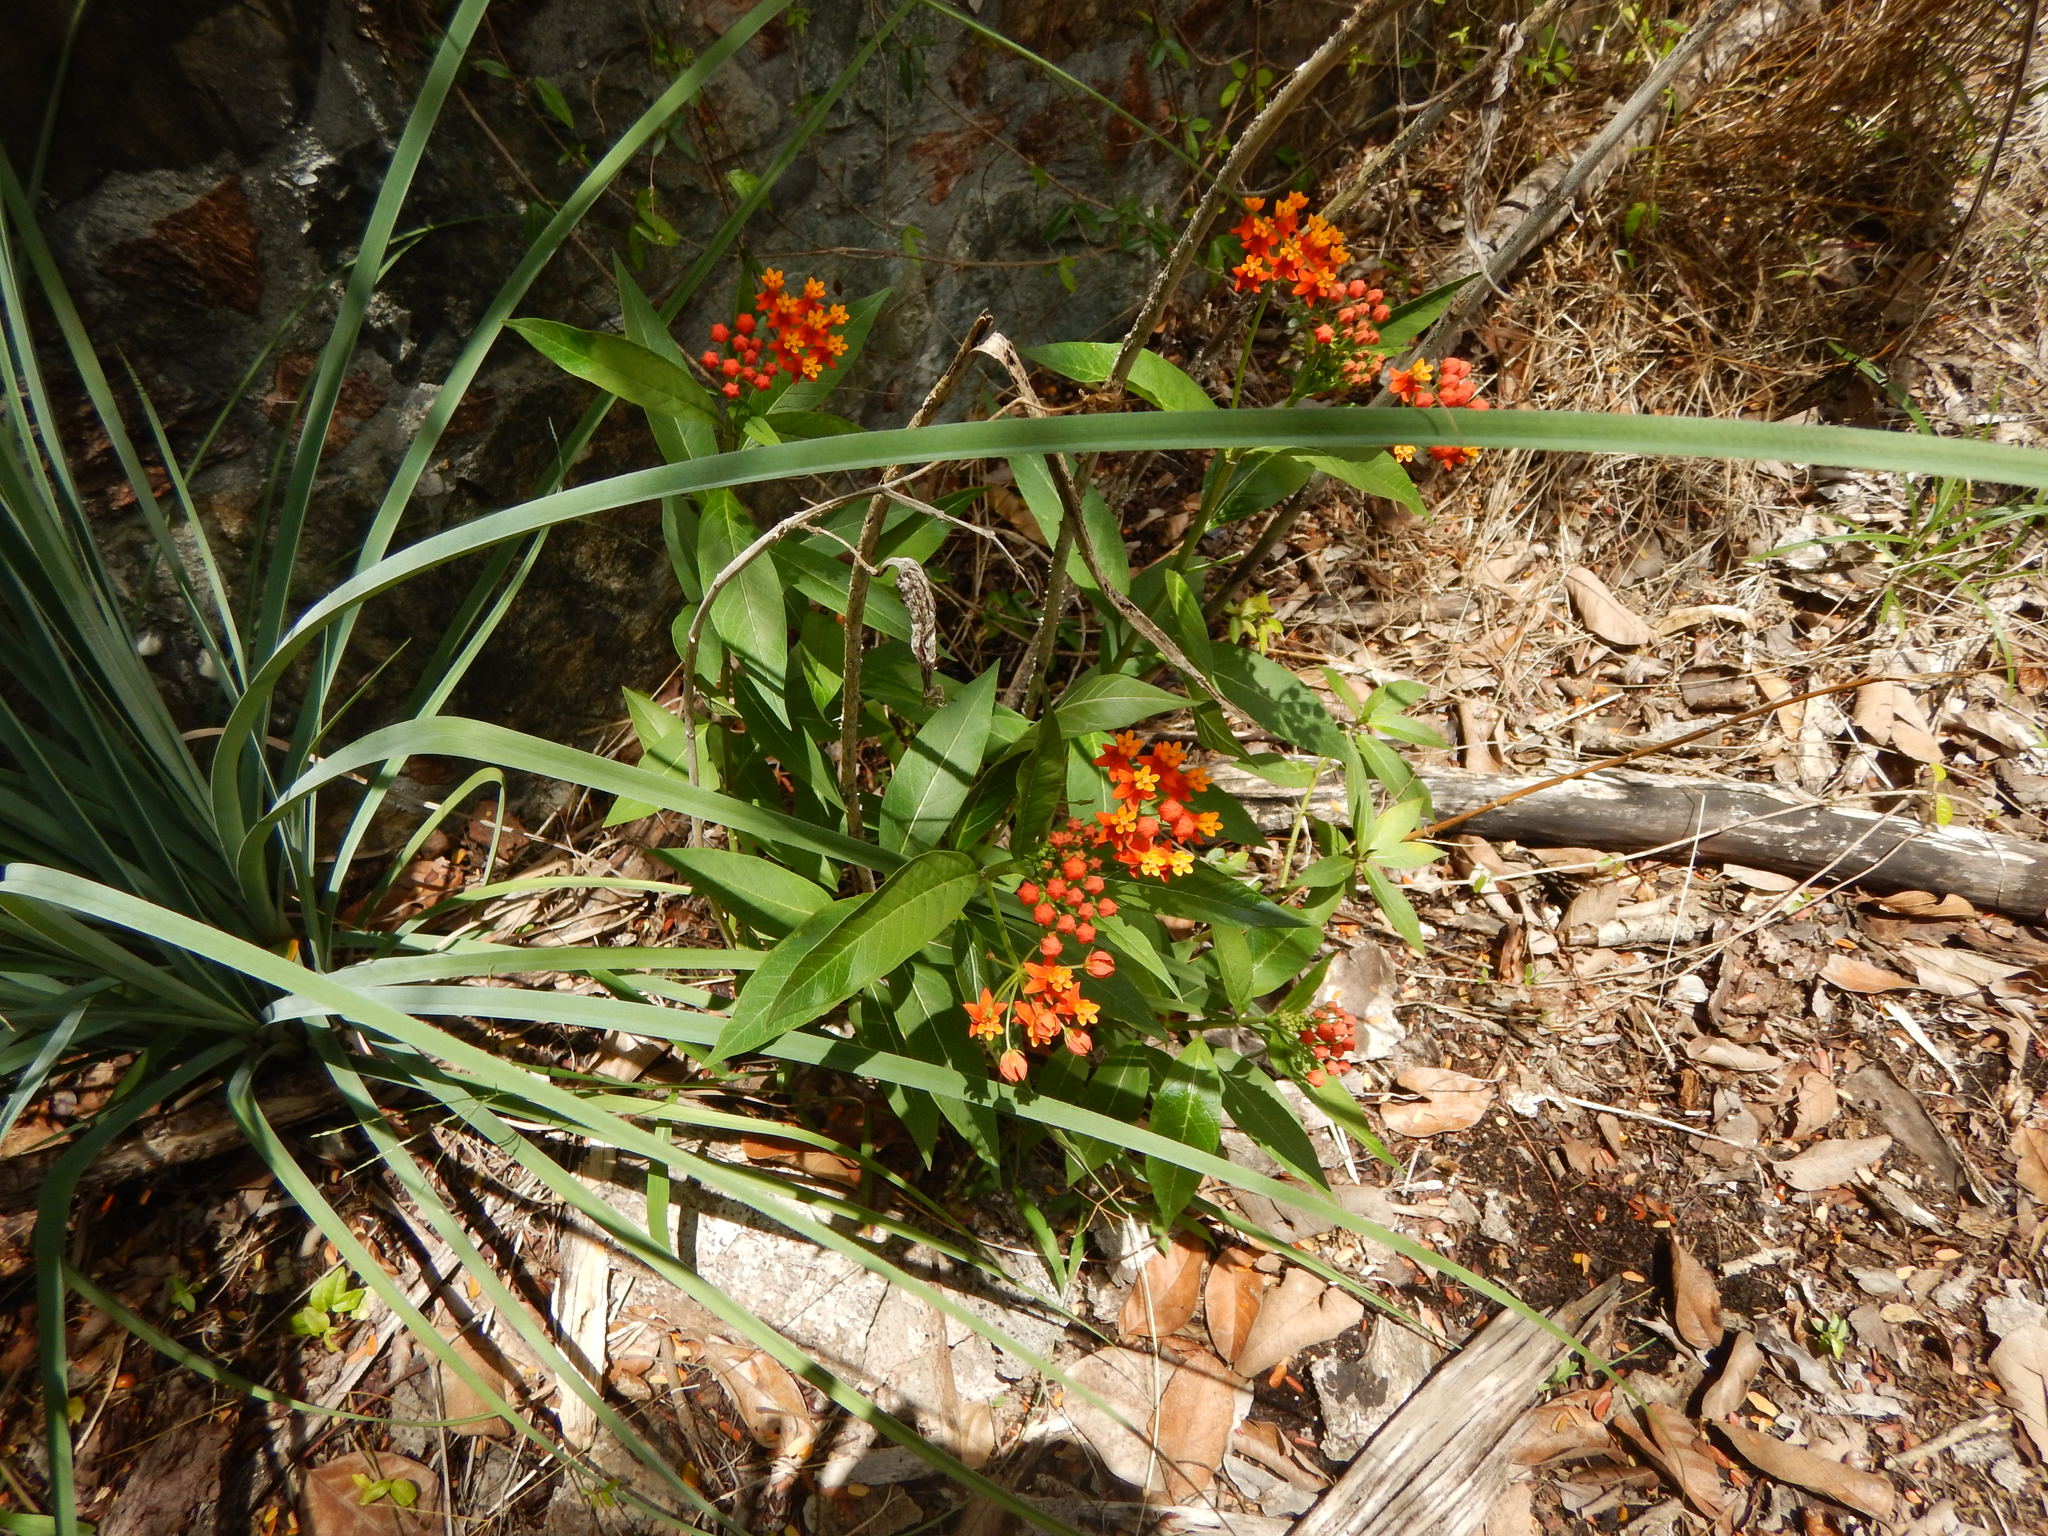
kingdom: Plantae
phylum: Tracheophyta
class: Magnoliopsida
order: Gentianales
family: Apocynaceae
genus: Asclepias
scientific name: Asclepias curassavica
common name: Bloodflower
